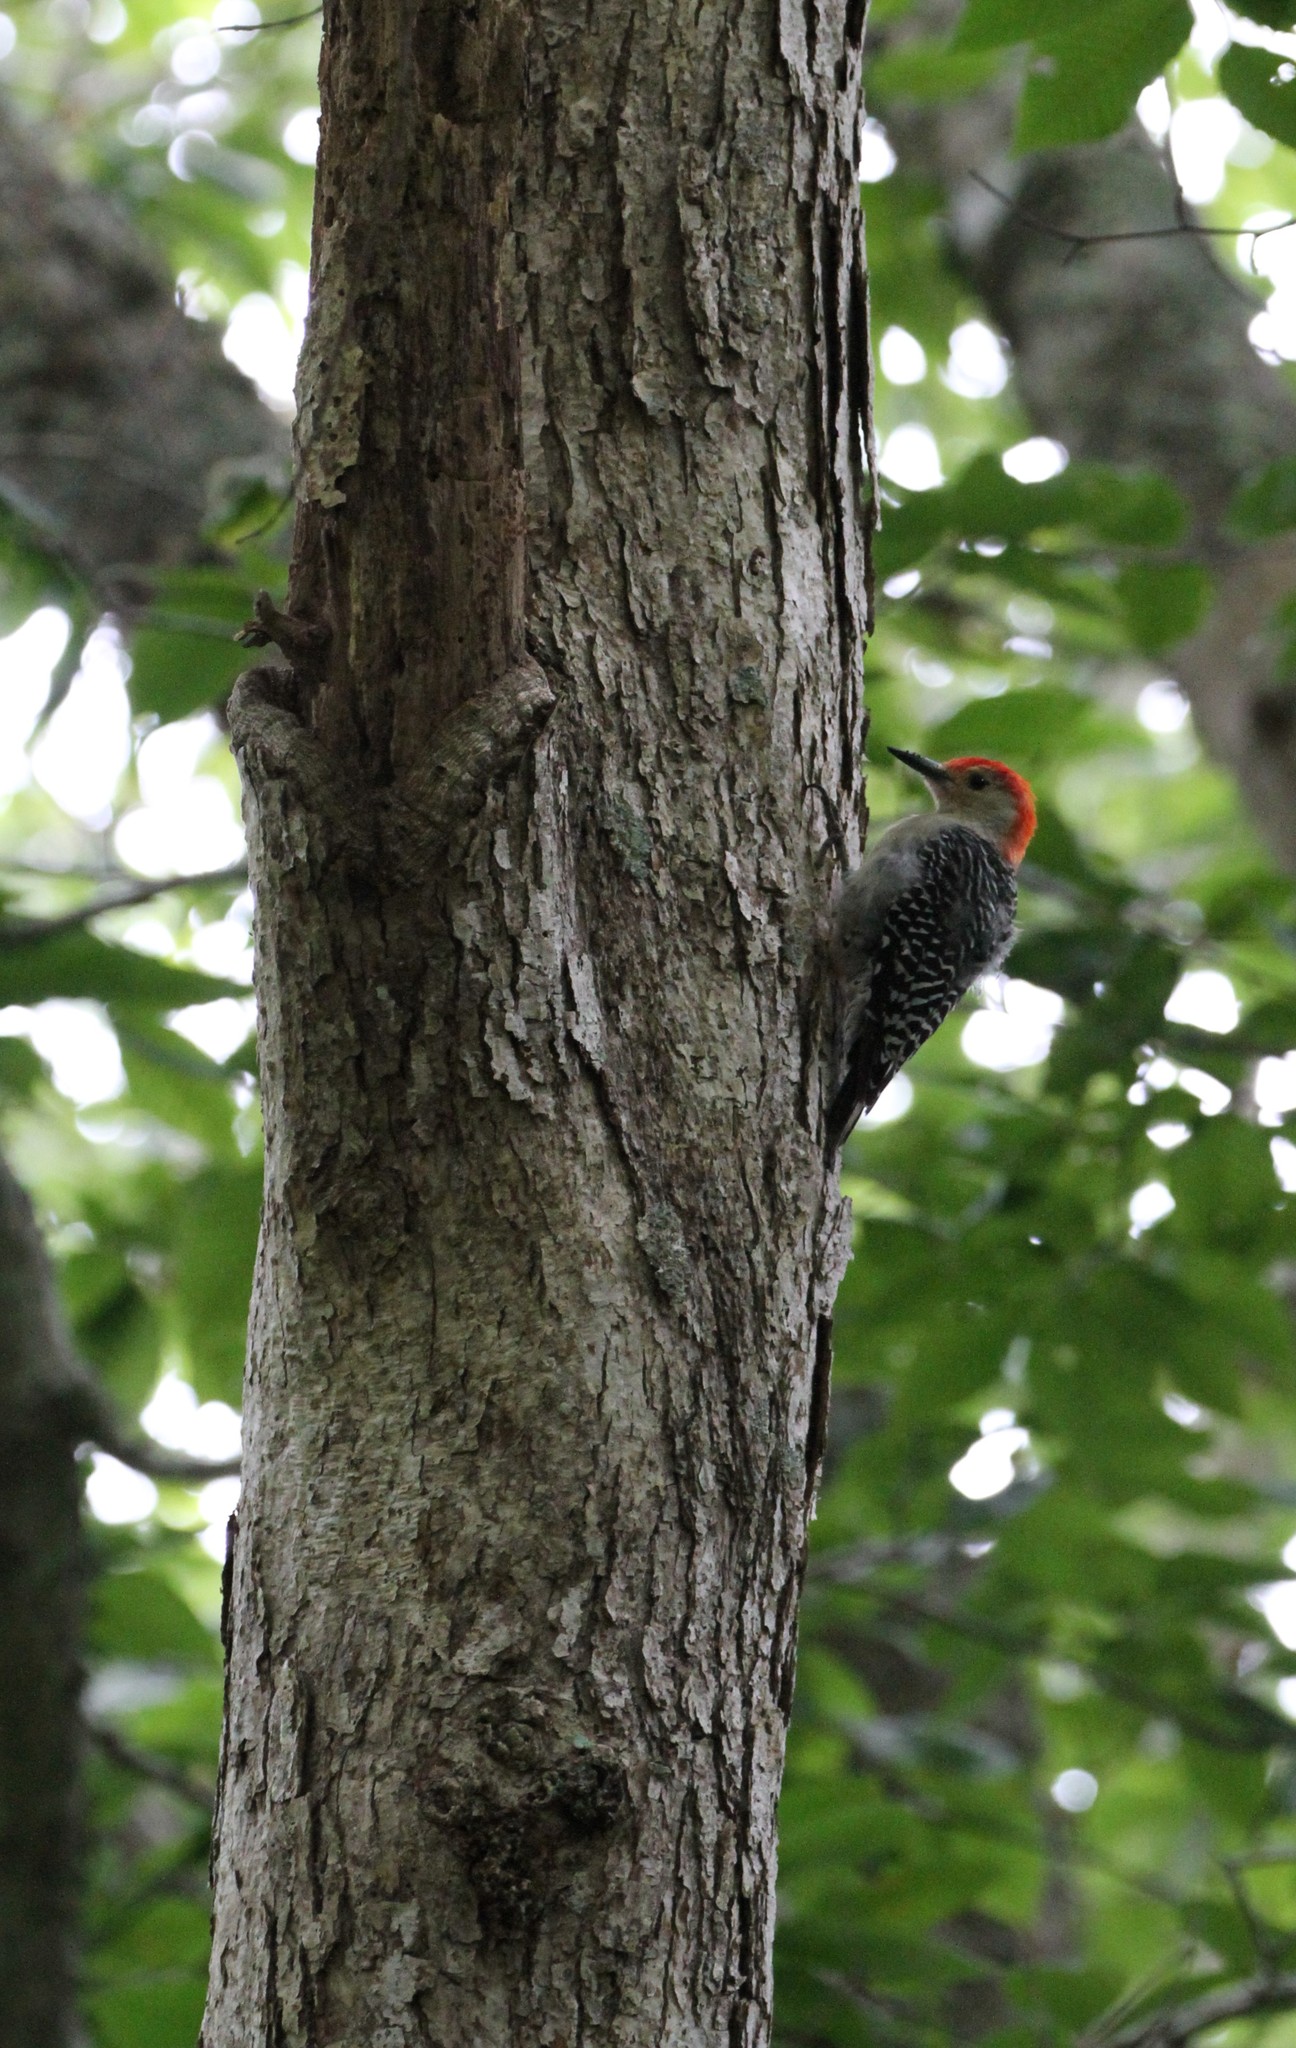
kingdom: Animalia
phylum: Chordata
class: Aves
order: Piciformes
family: Picidae
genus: Melanerpes
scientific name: Melanerpes carolinus
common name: Red-bellied woodpecker
